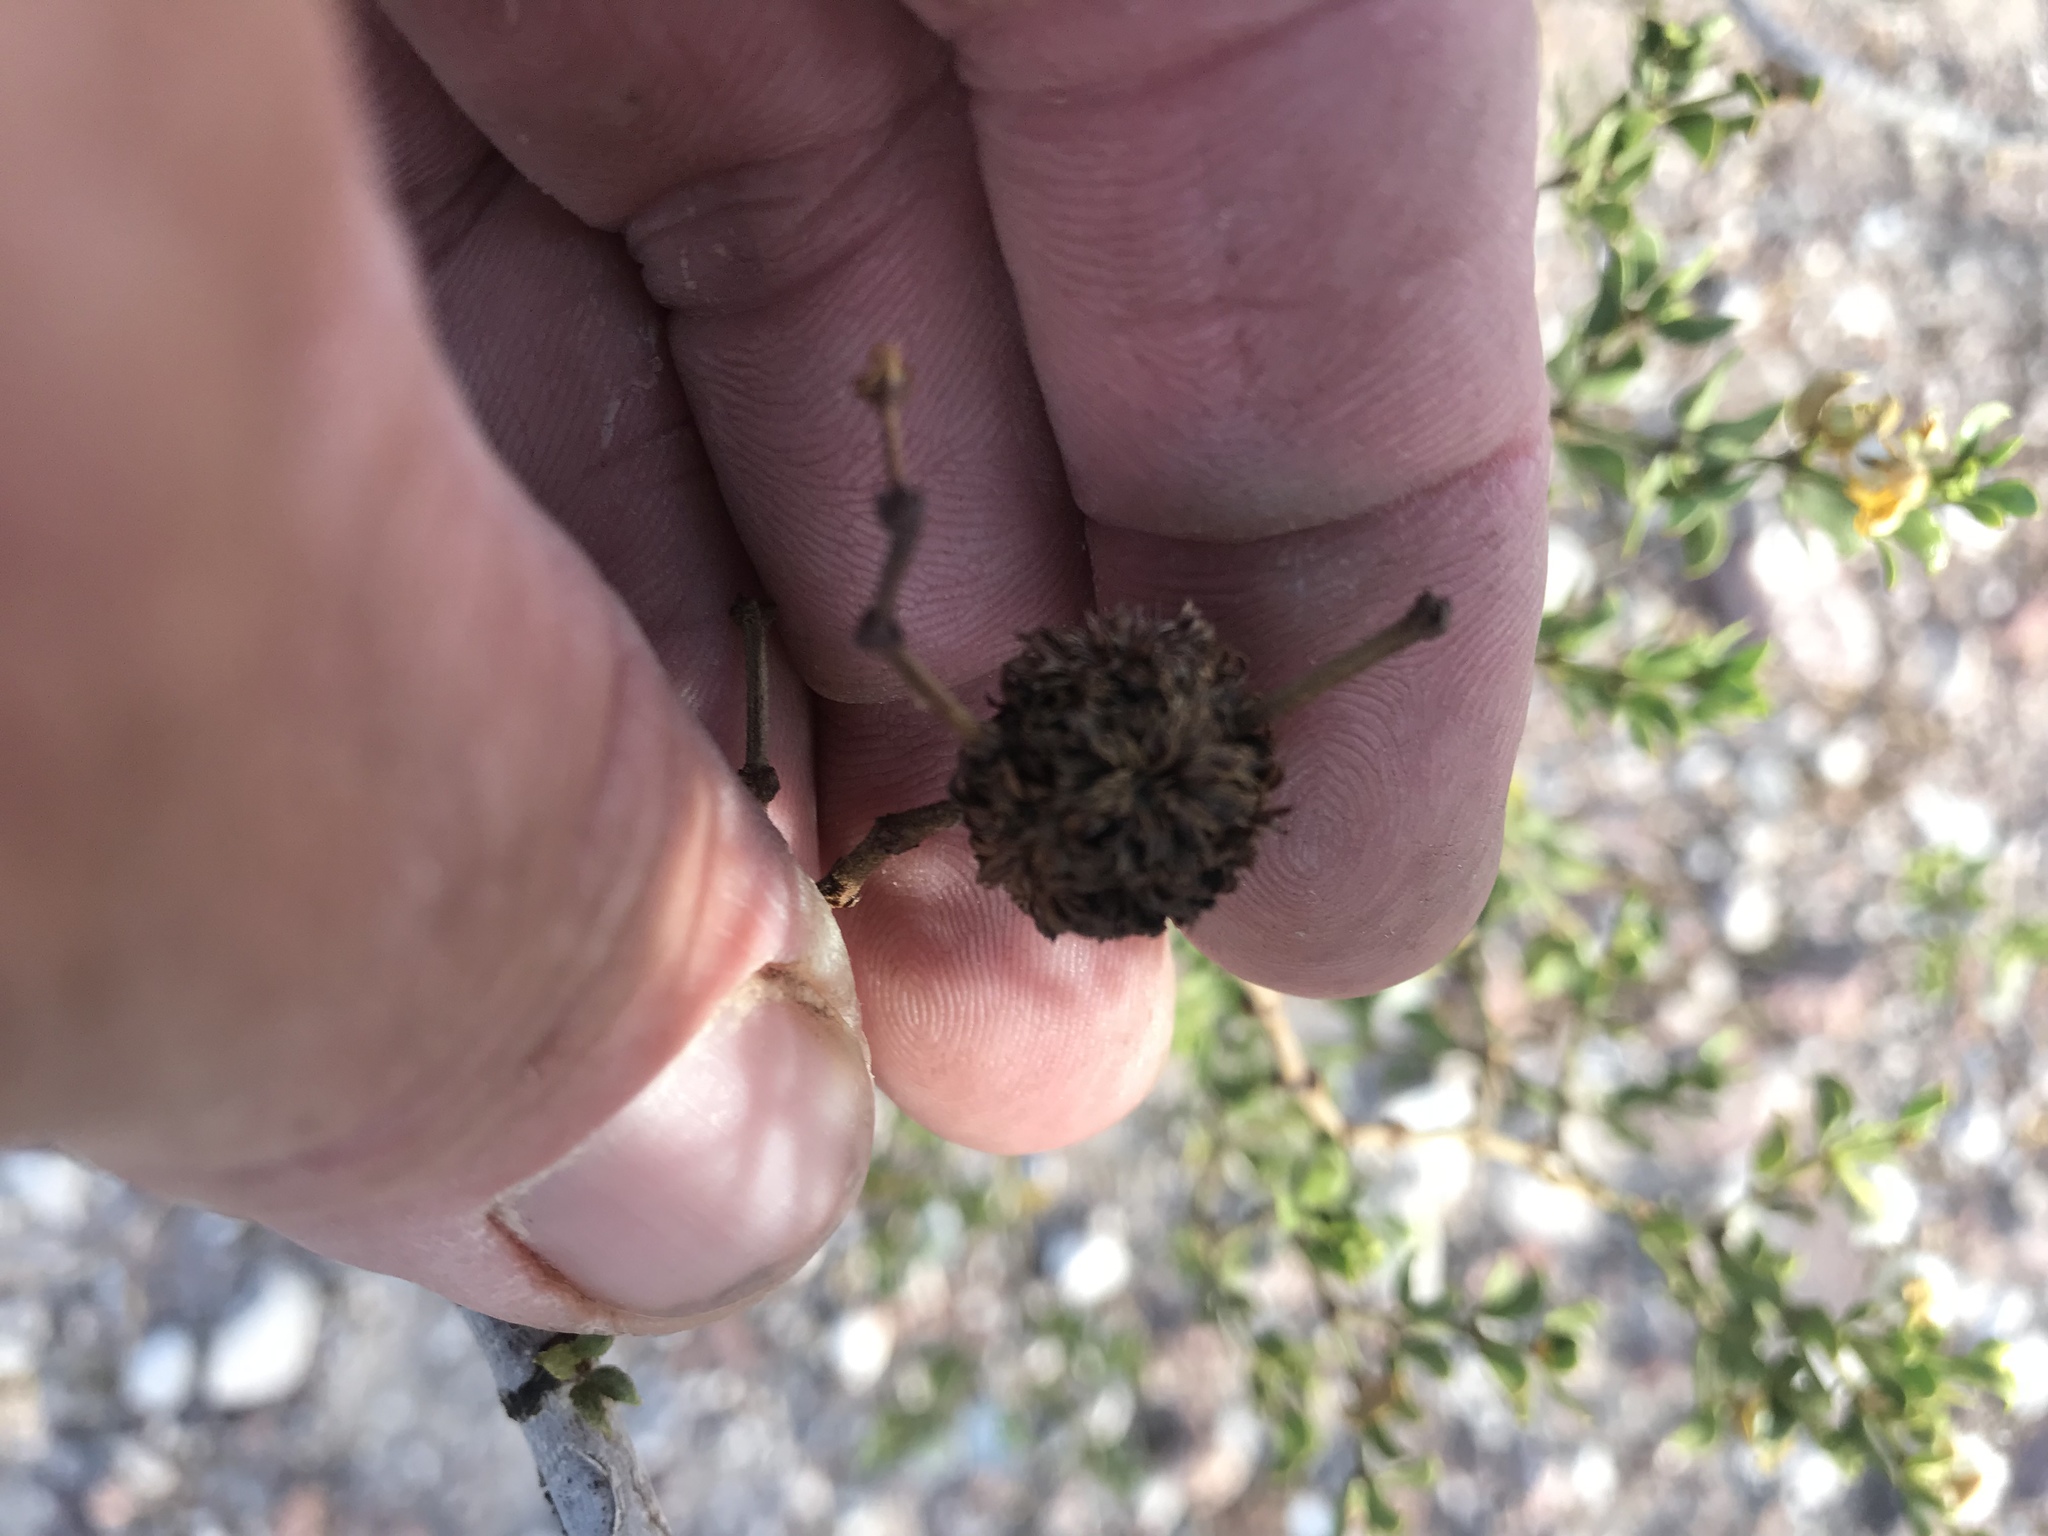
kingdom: Animalia
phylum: Arthropoda
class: Insecta
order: Diptera
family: Cecidomyiidae
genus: Asphondylia
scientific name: Asphondylia auripila
